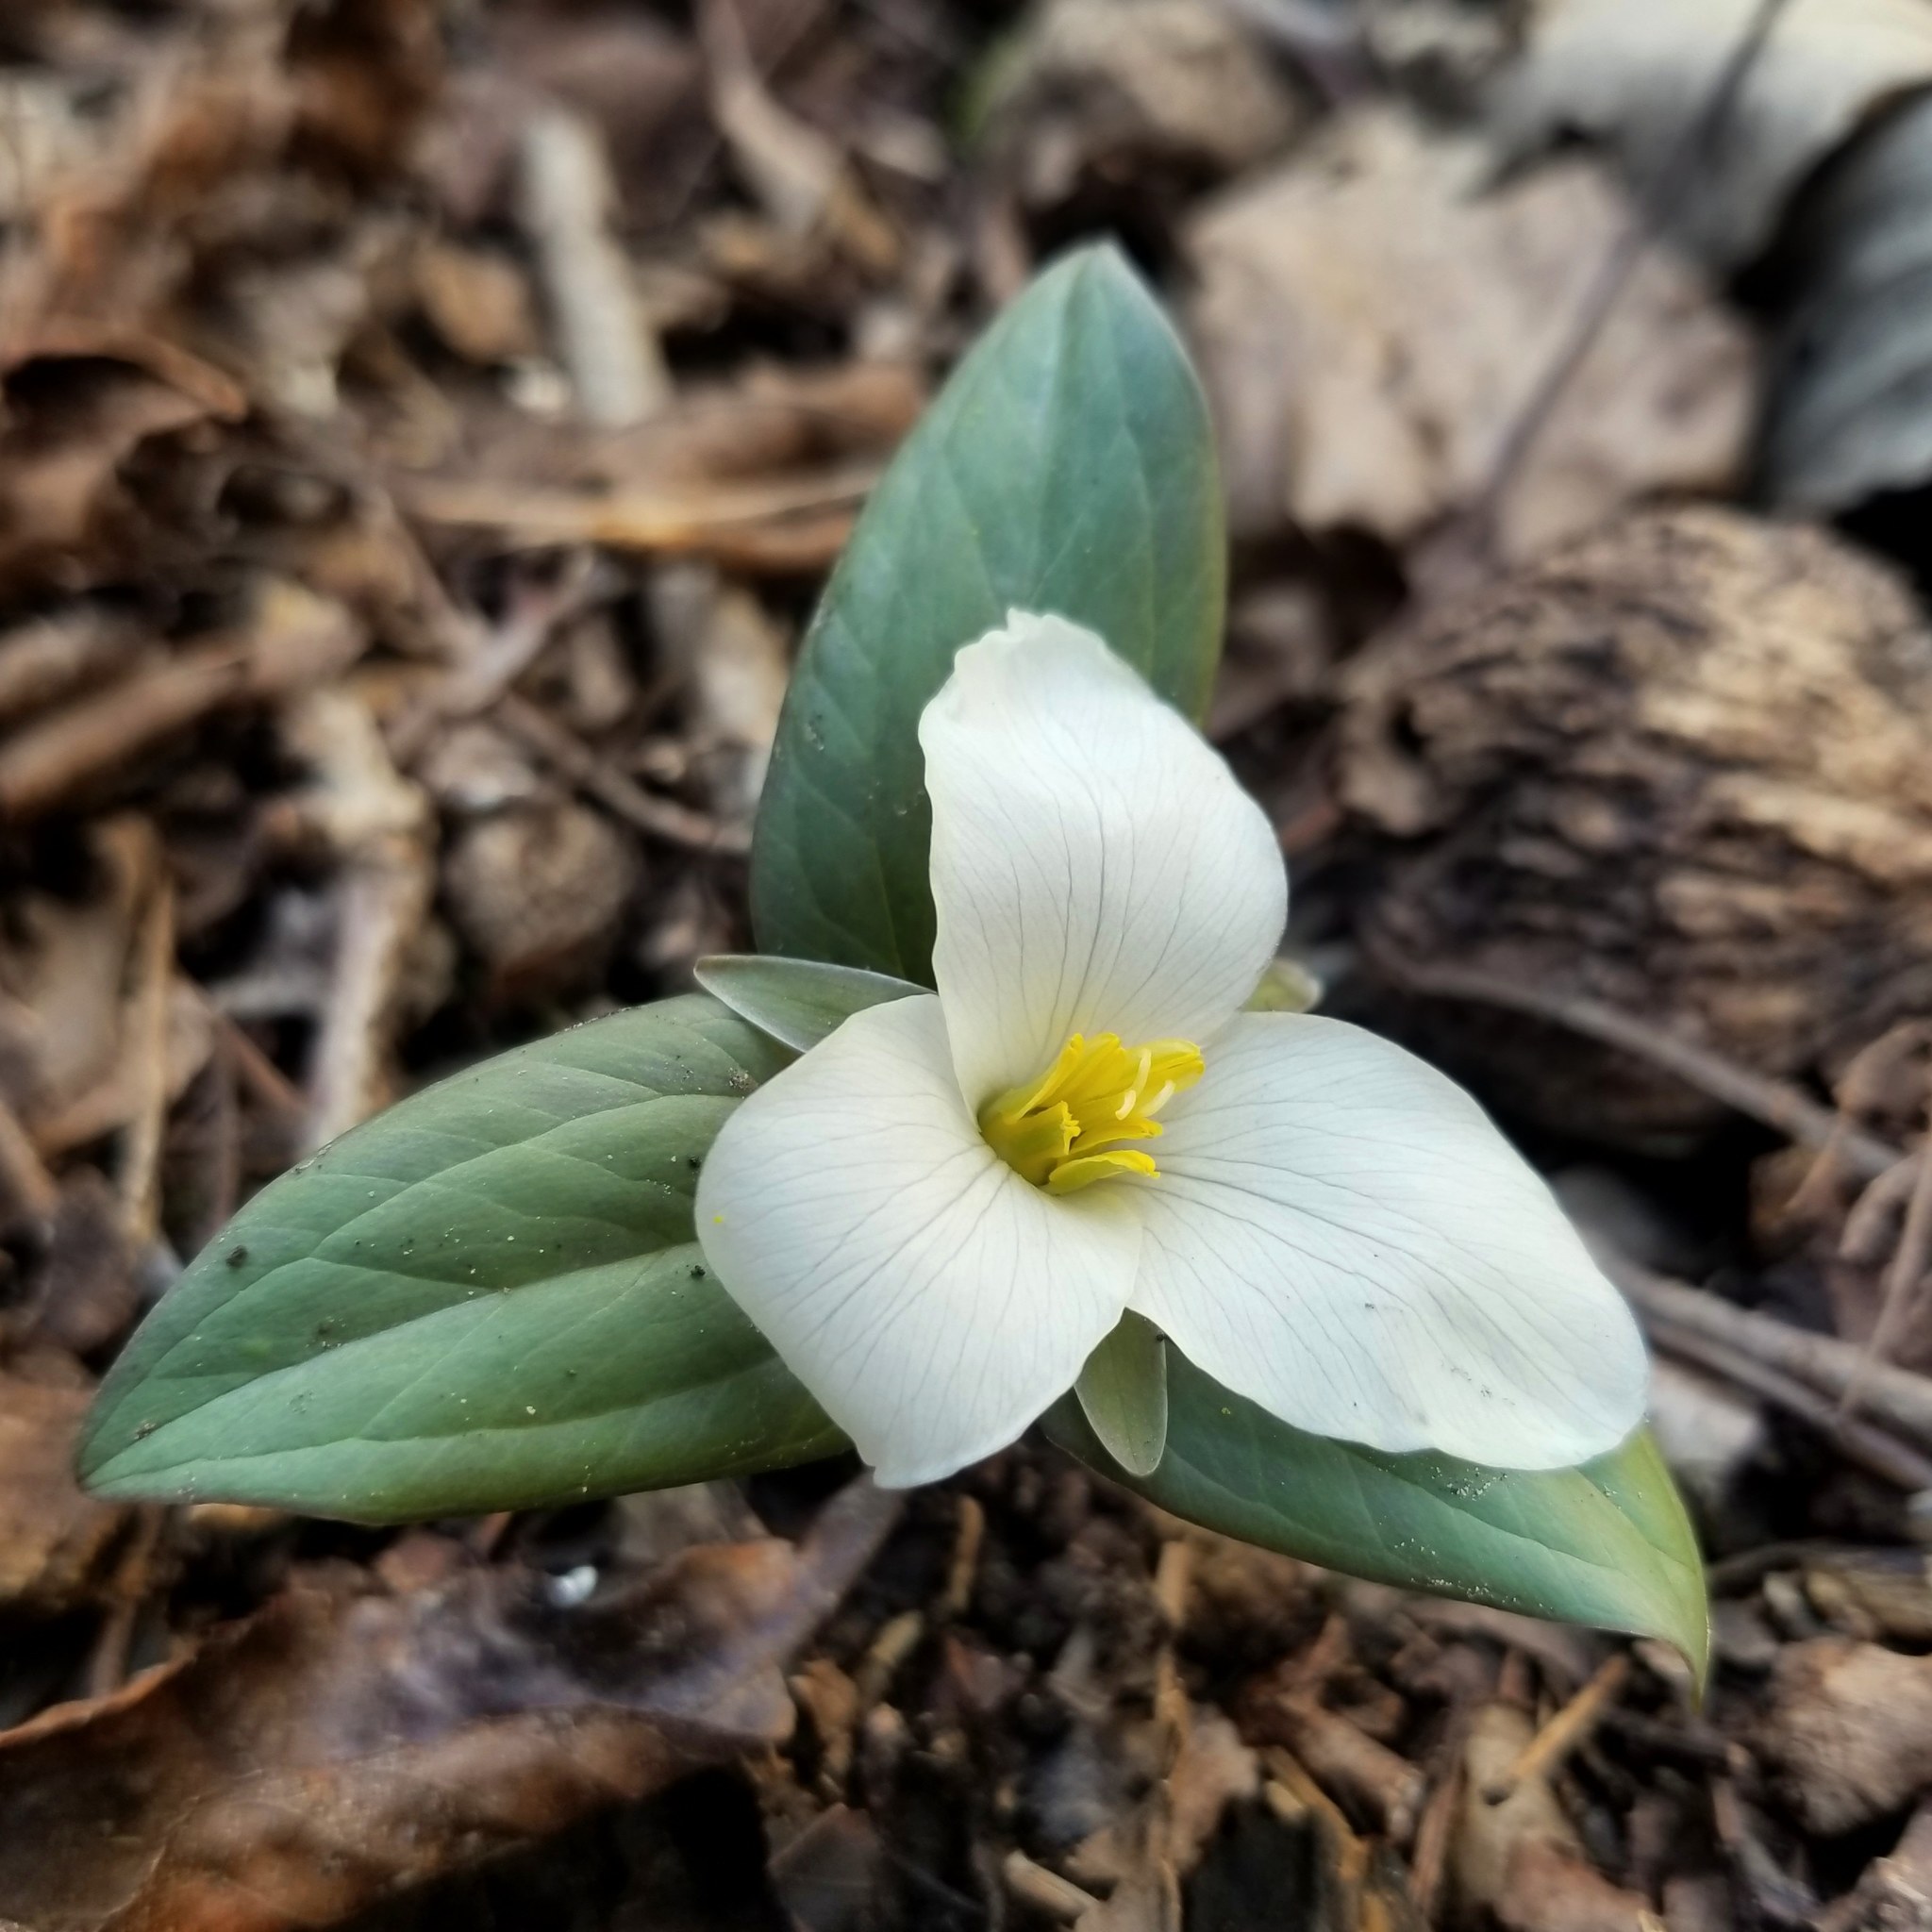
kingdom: Plantae
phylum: Tracheophyta
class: Liliopsida
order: Liliales
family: Melanthiaceae
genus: Trillium
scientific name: Trillium nivale
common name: Dwarf white trillium
